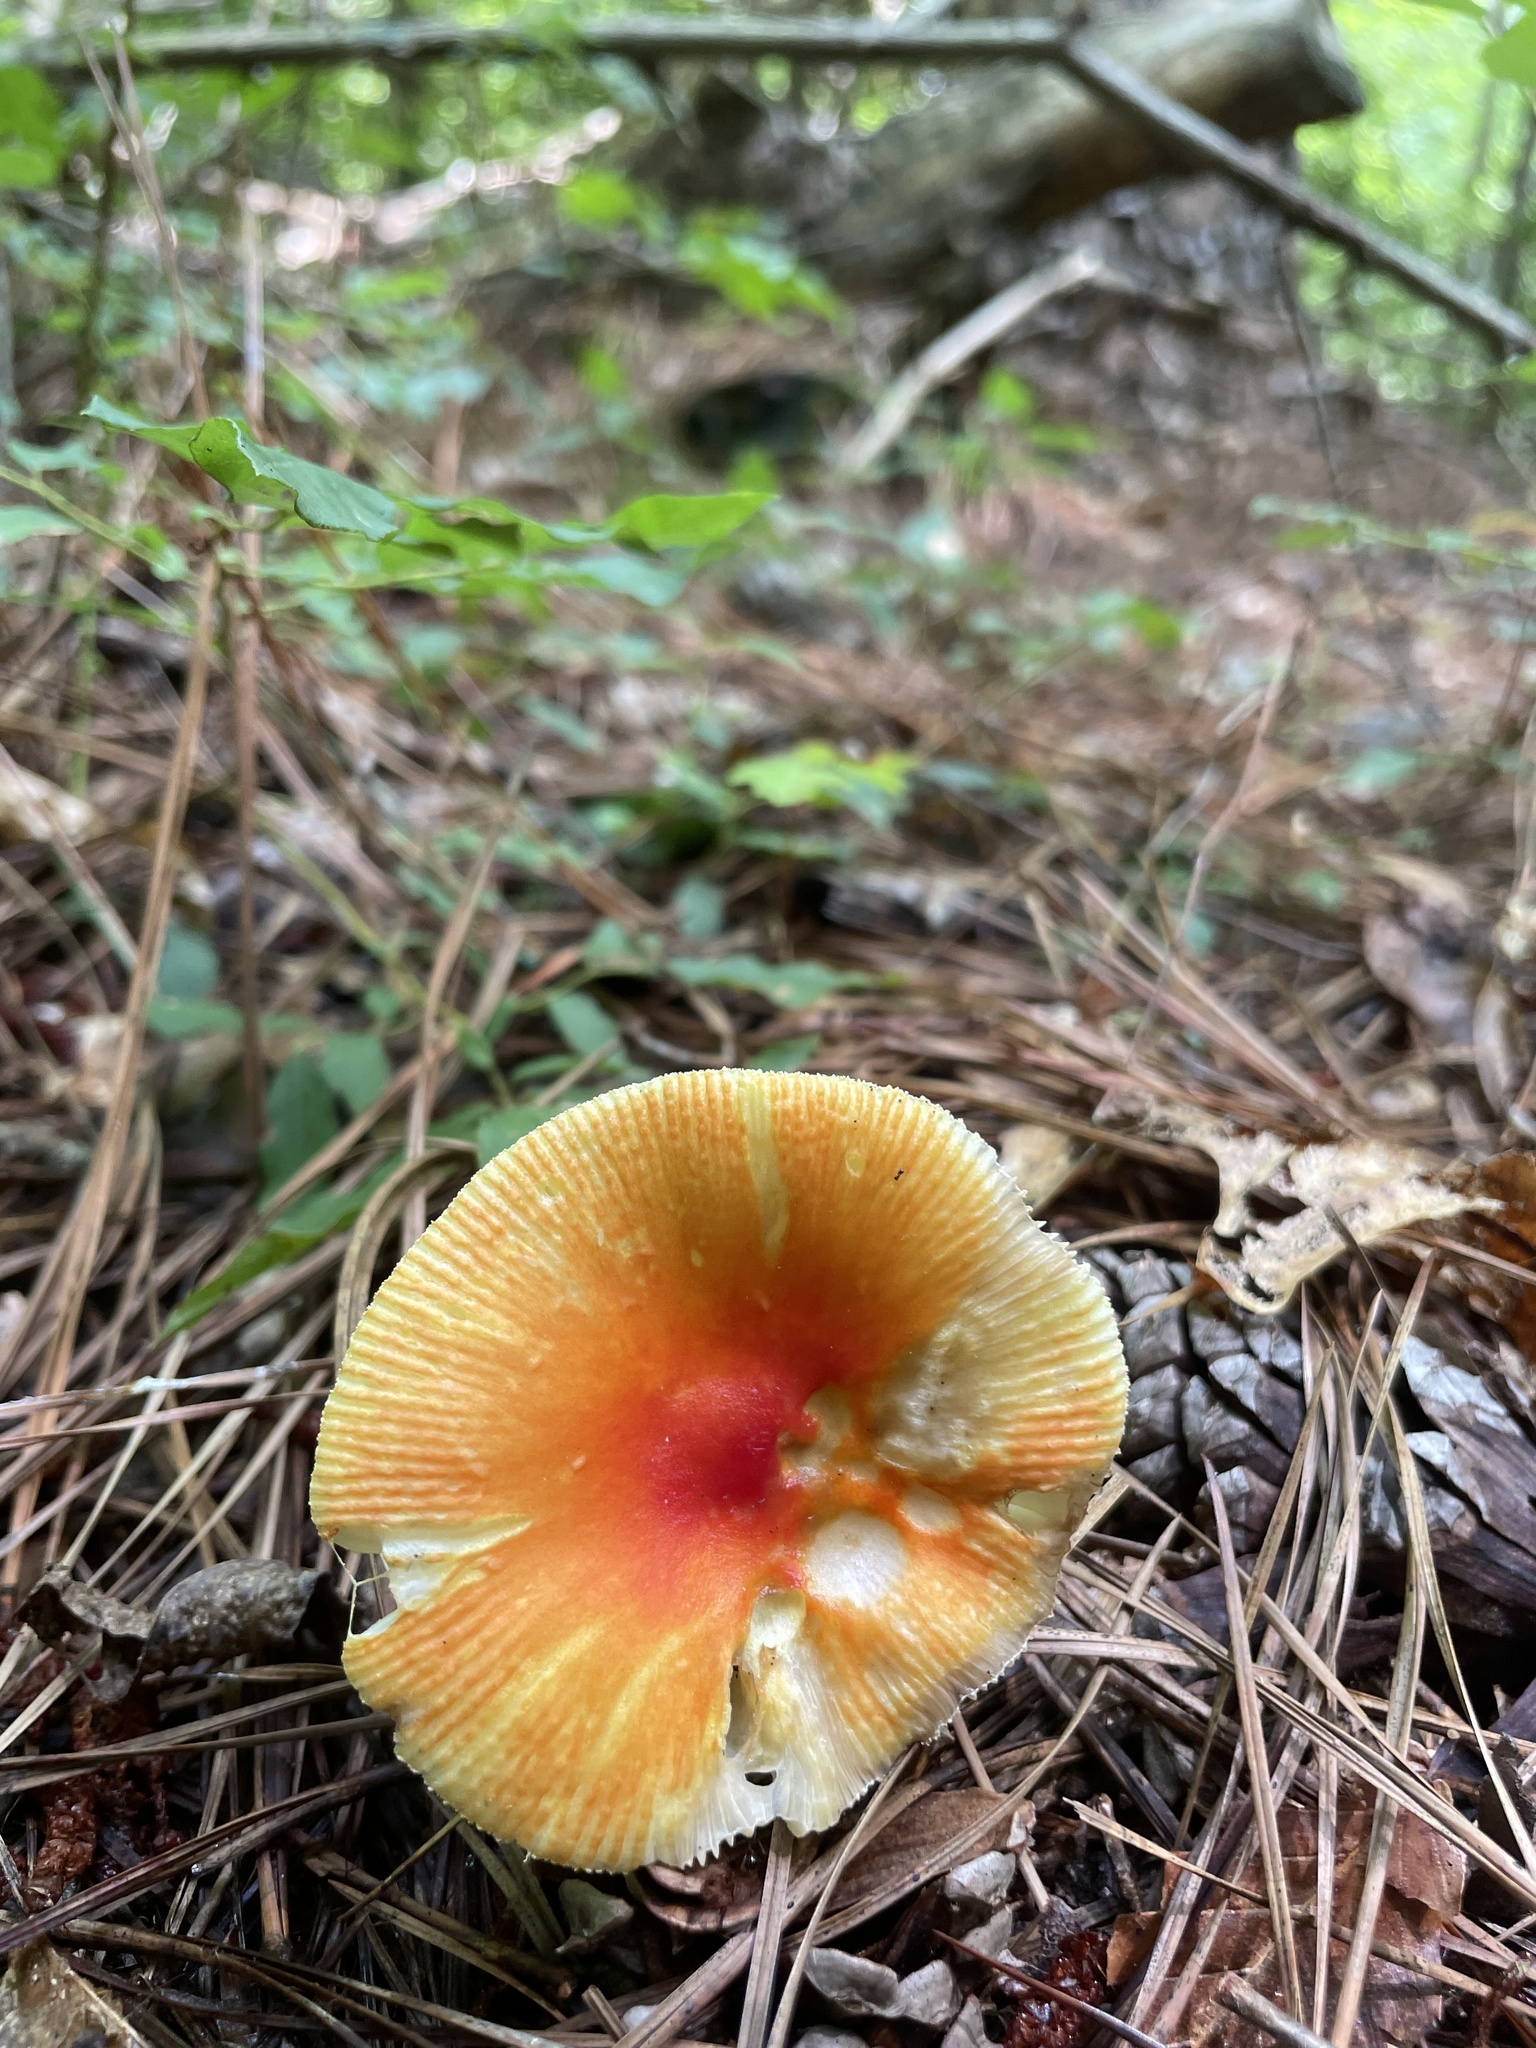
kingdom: Fungi
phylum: Basidiomycota
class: Agaricomycetes
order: Agaricales
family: Amanitaceae
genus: Amanita
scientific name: Amanita parcivolvata
